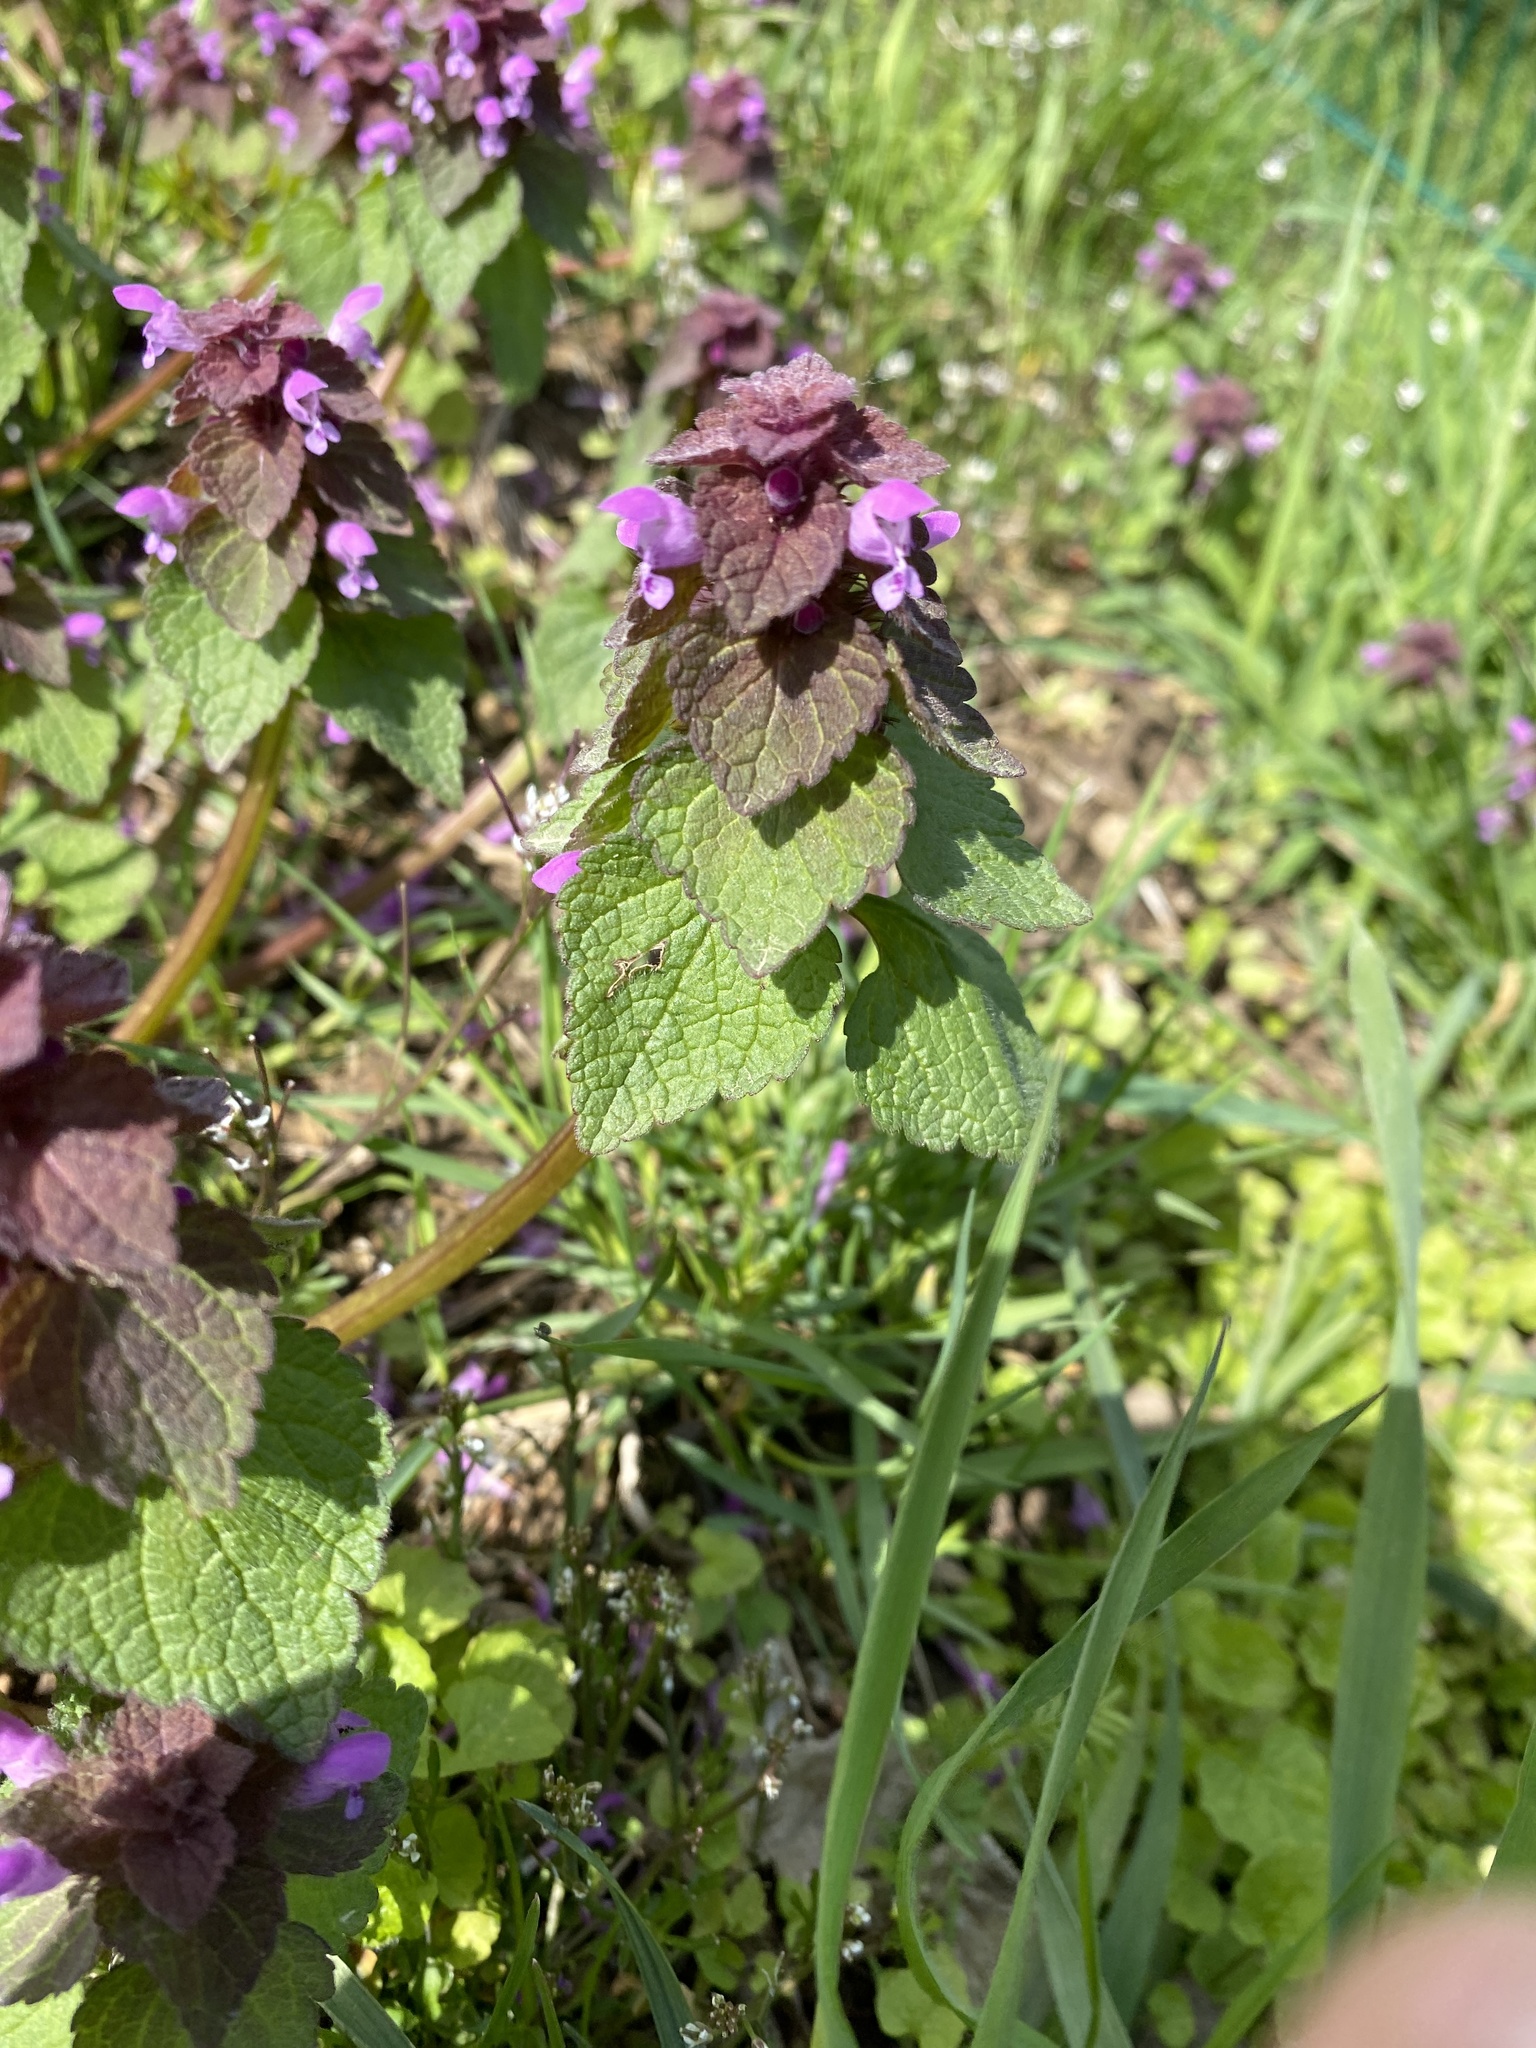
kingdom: Plantae
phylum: Tracheophyta
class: Magnoliopsida
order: Lamiales
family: Lamiaceae
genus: Lamium
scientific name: Lamium purpureum
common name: Red dead-nettle
